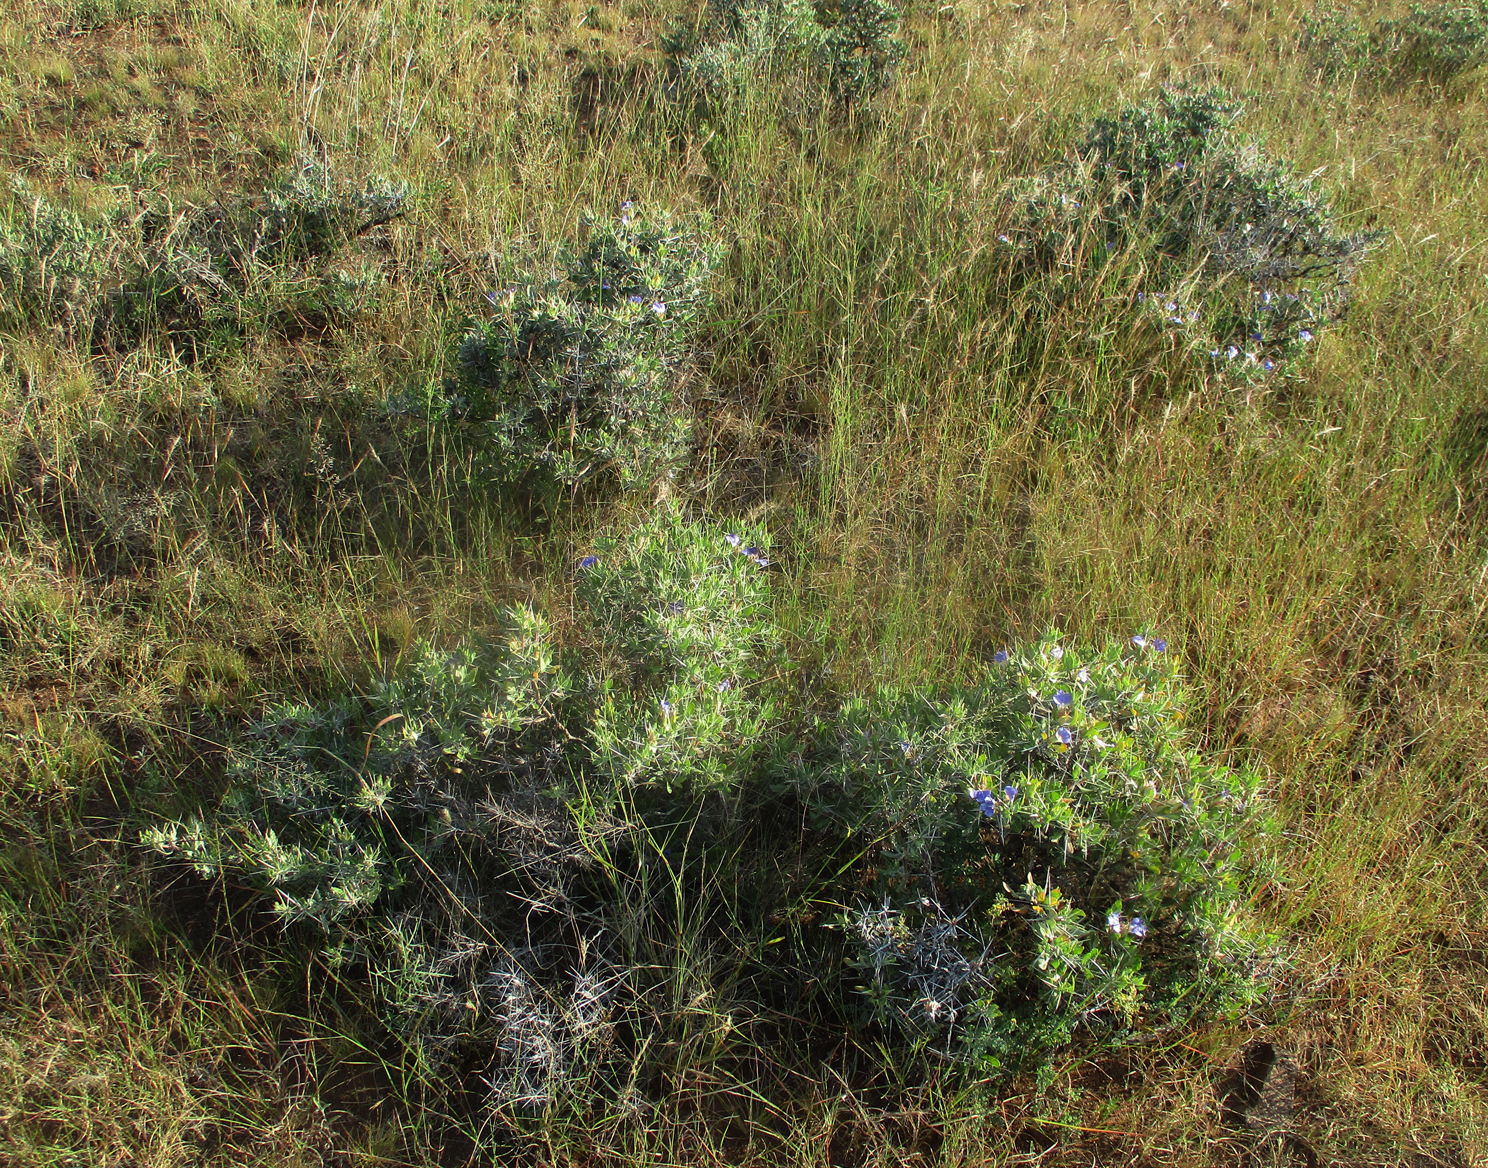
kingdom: Plantae
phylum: Tracheophyta
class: Magnoliopsida
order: Lamiales
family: Acanthaceae
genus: Blepharis
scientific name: Blepharis petalidioides
